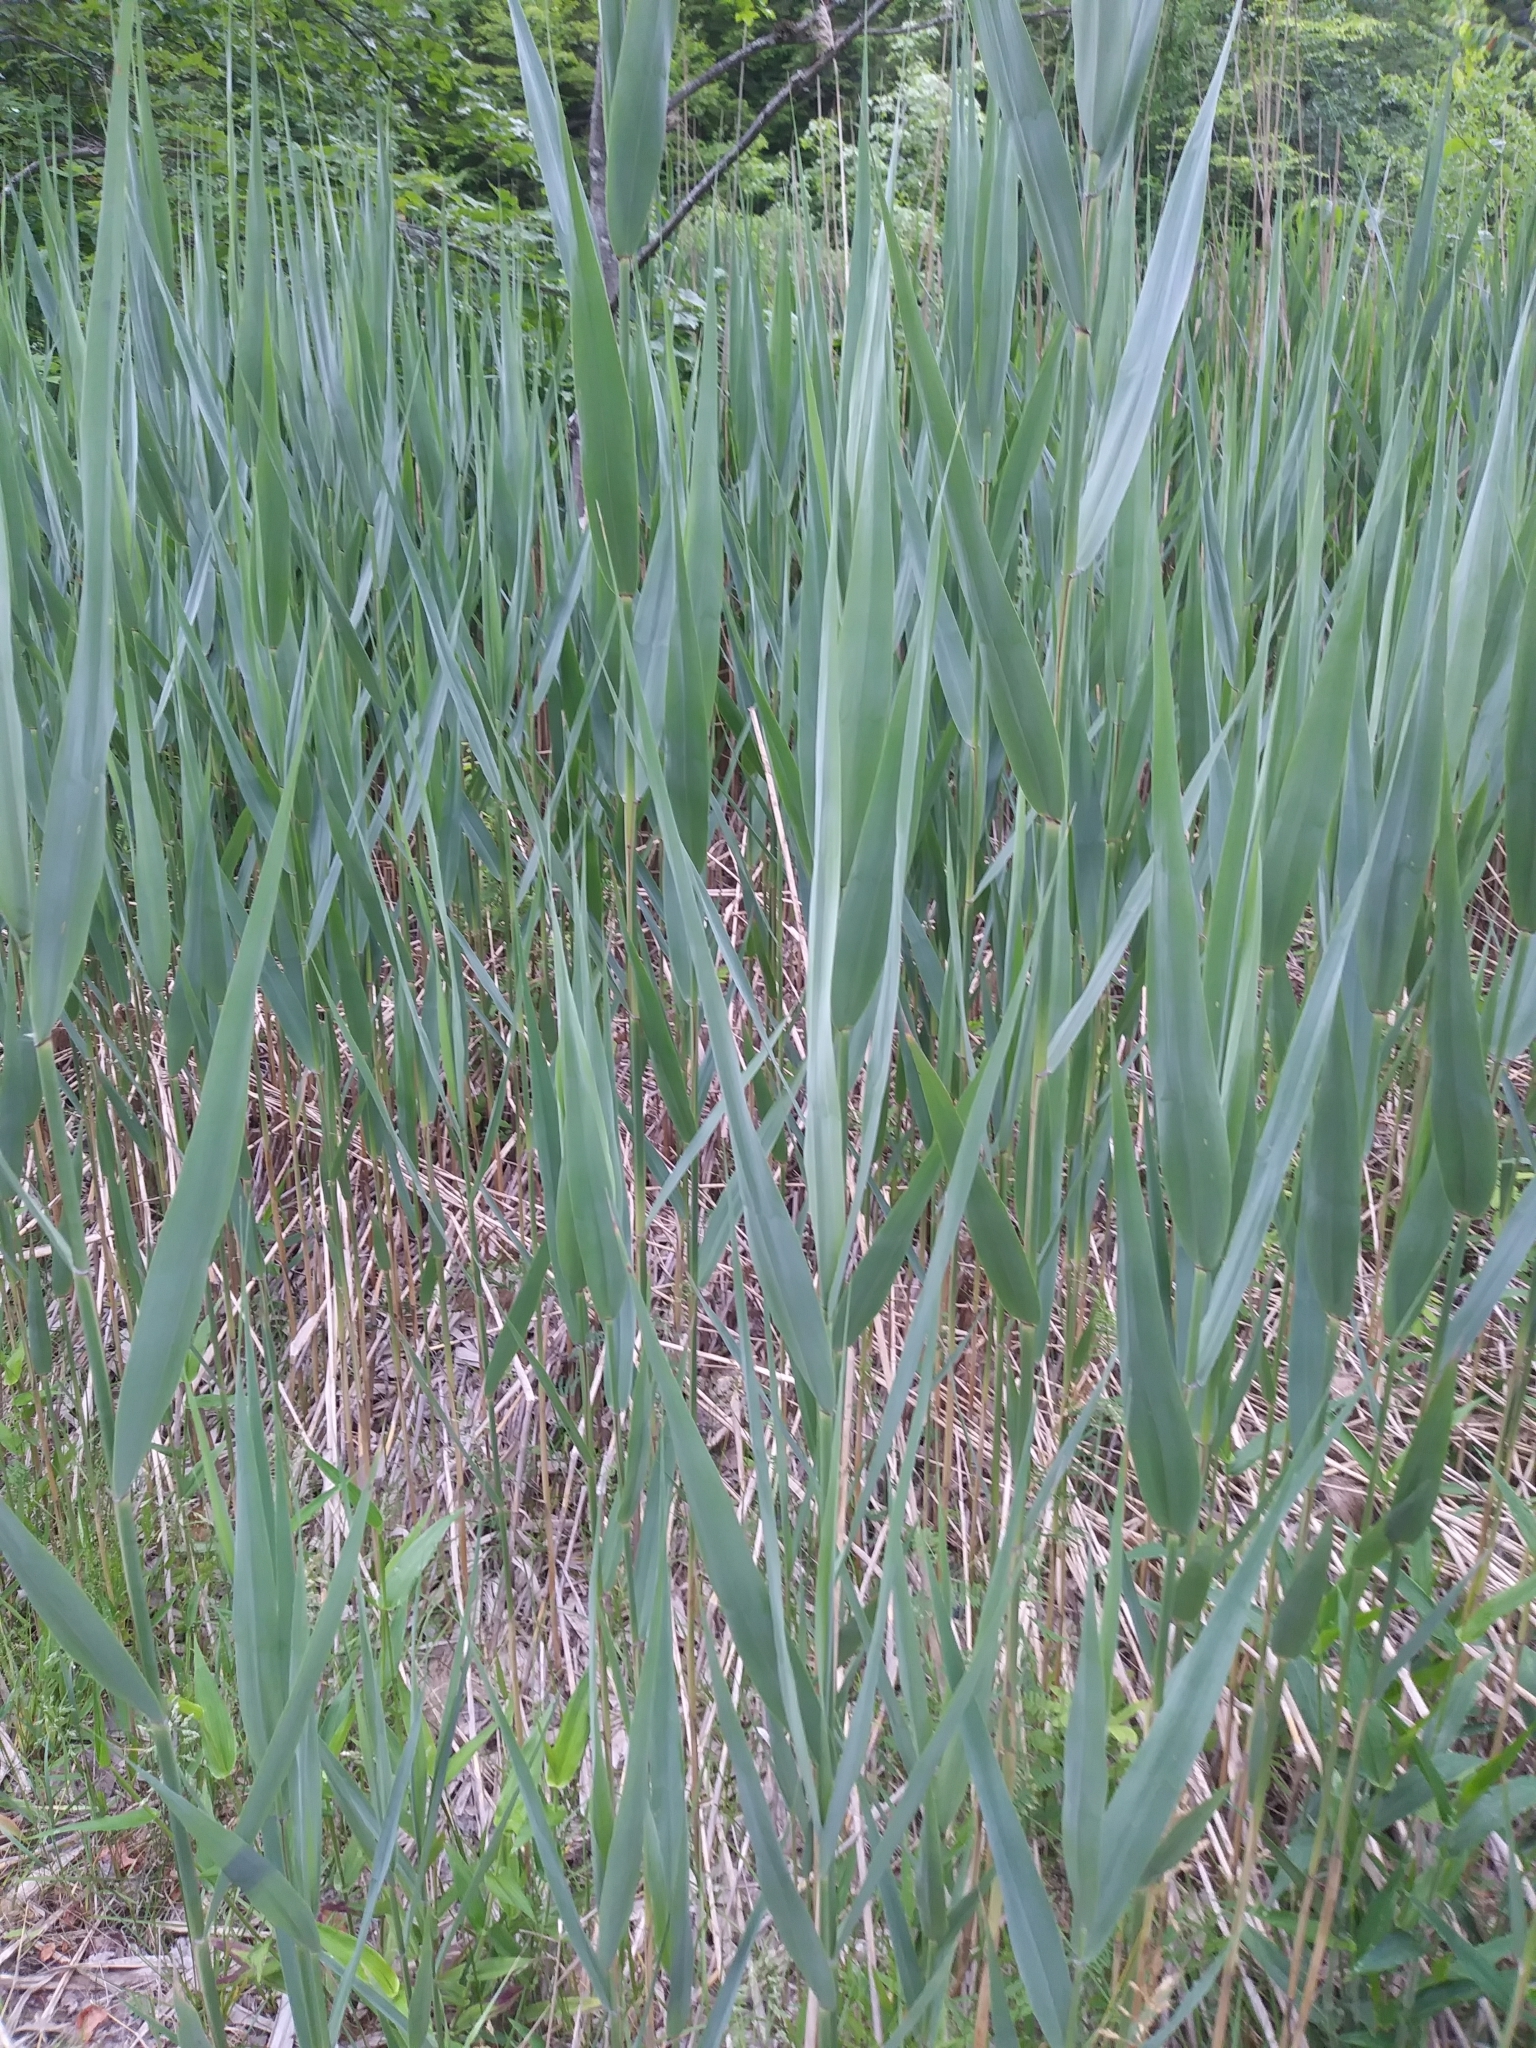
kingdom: Plantae
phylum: Tracheophyta
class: Liliopsida
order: Poales
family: Poaceae
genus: Phragmites
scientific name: Phragmites australis
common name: Common reed
